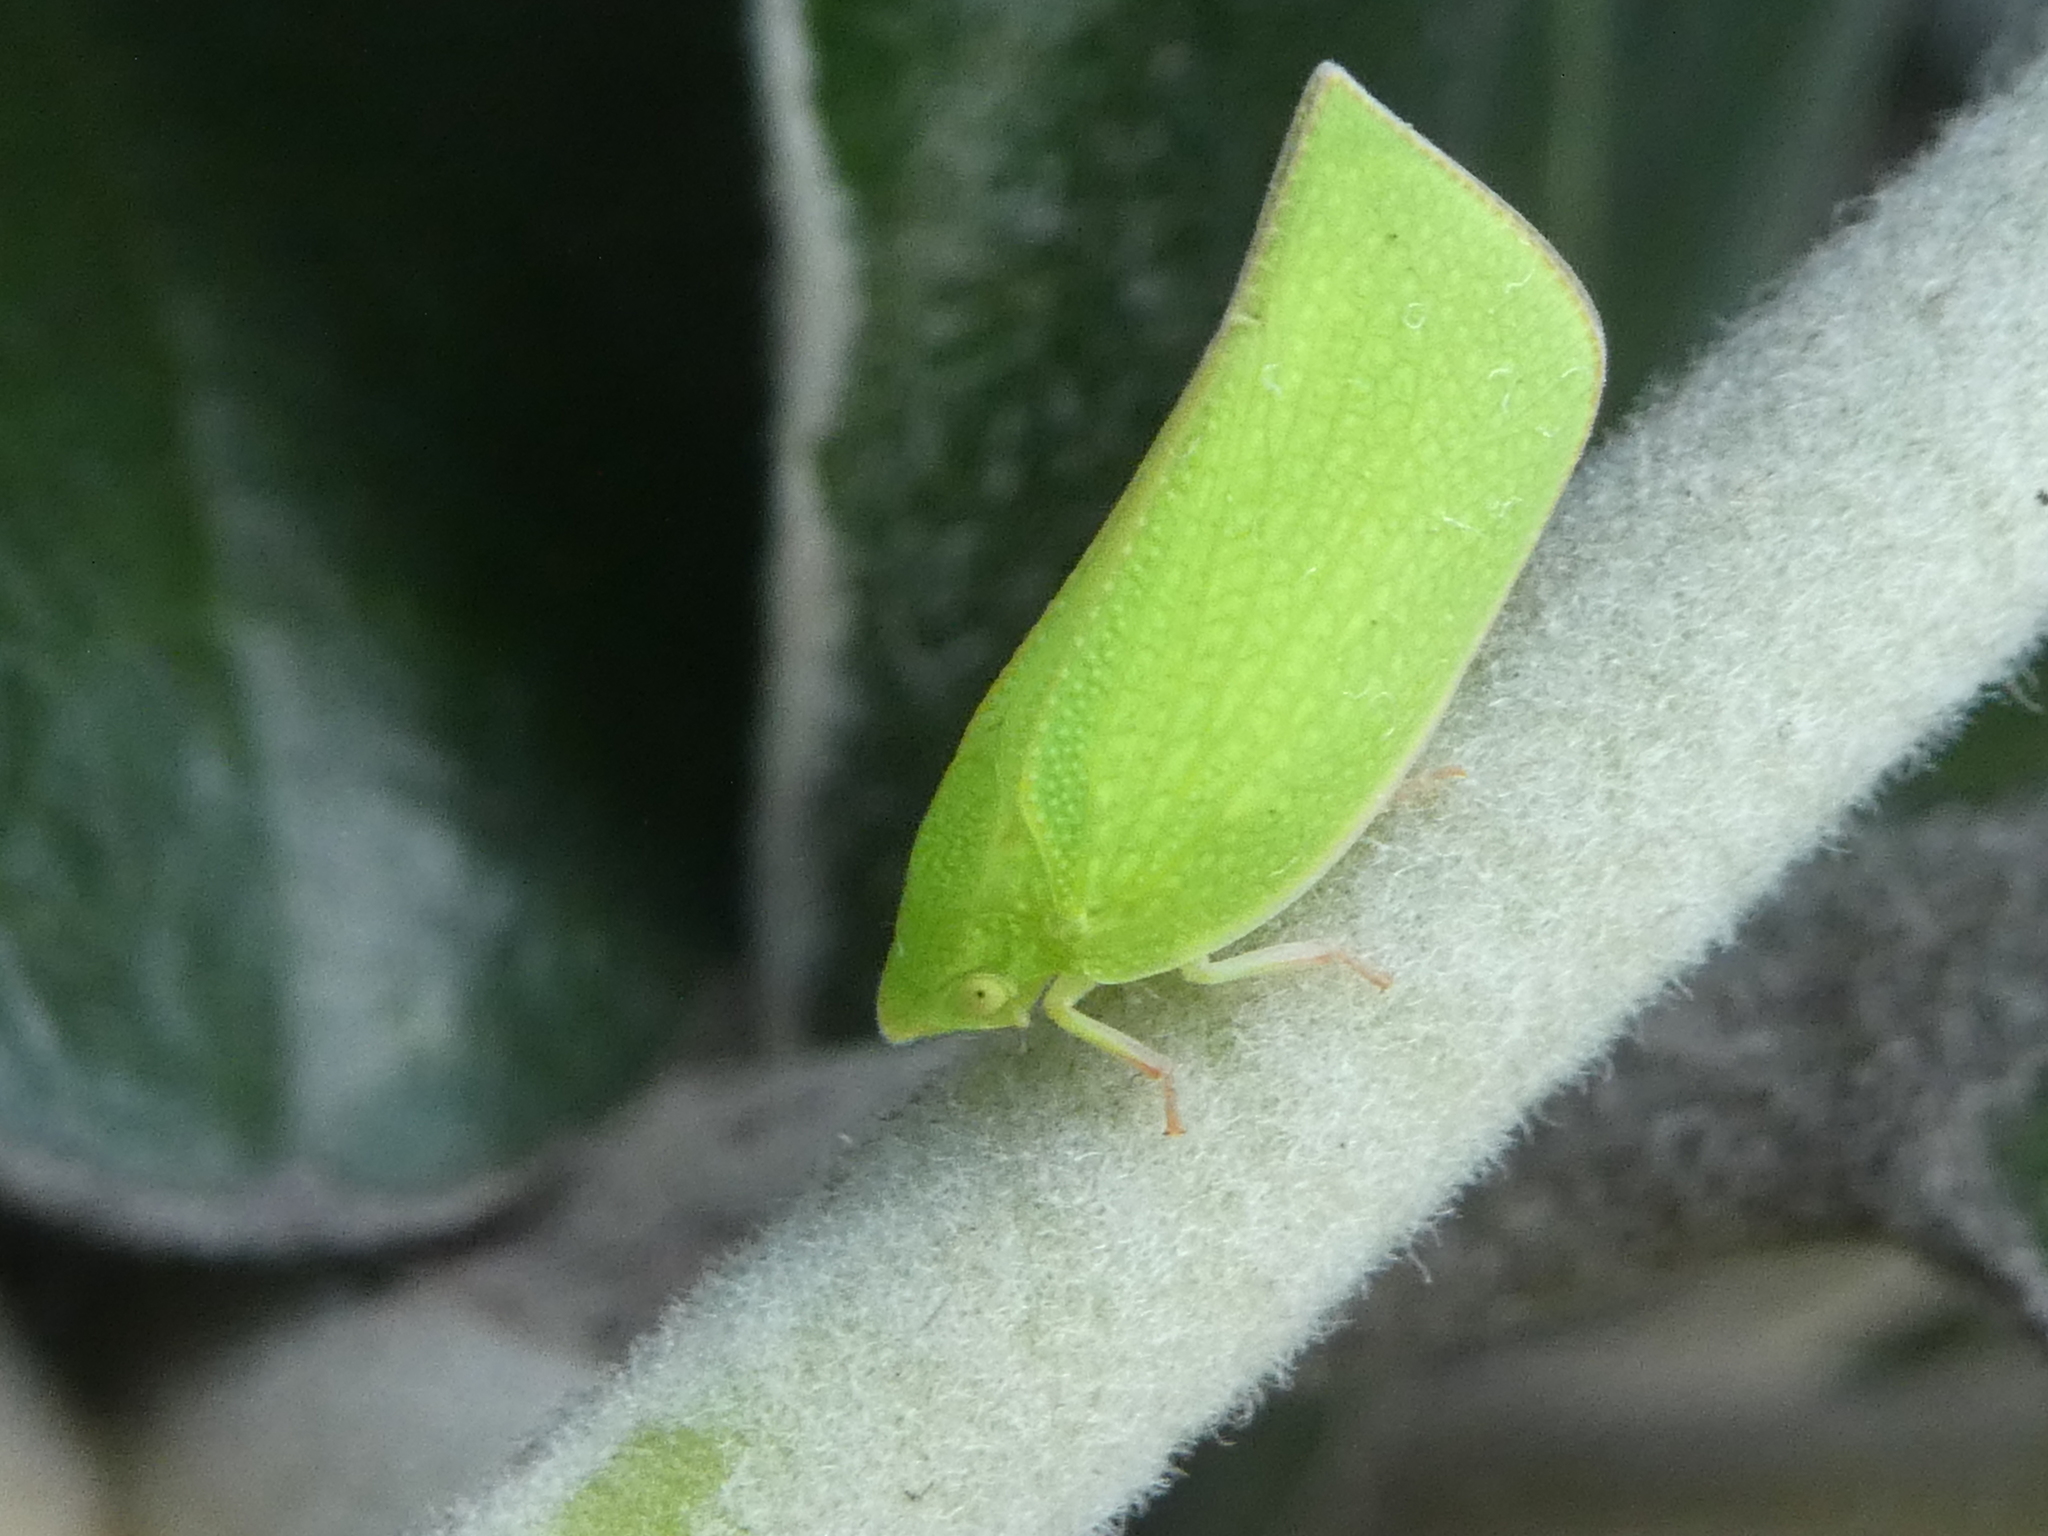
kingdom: Animalia
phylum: Arthropoda
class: Insecta
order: Hemiptera
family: Flatidae
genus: Siphanta
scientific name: Siphanta acuta
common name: Torpedo bug
